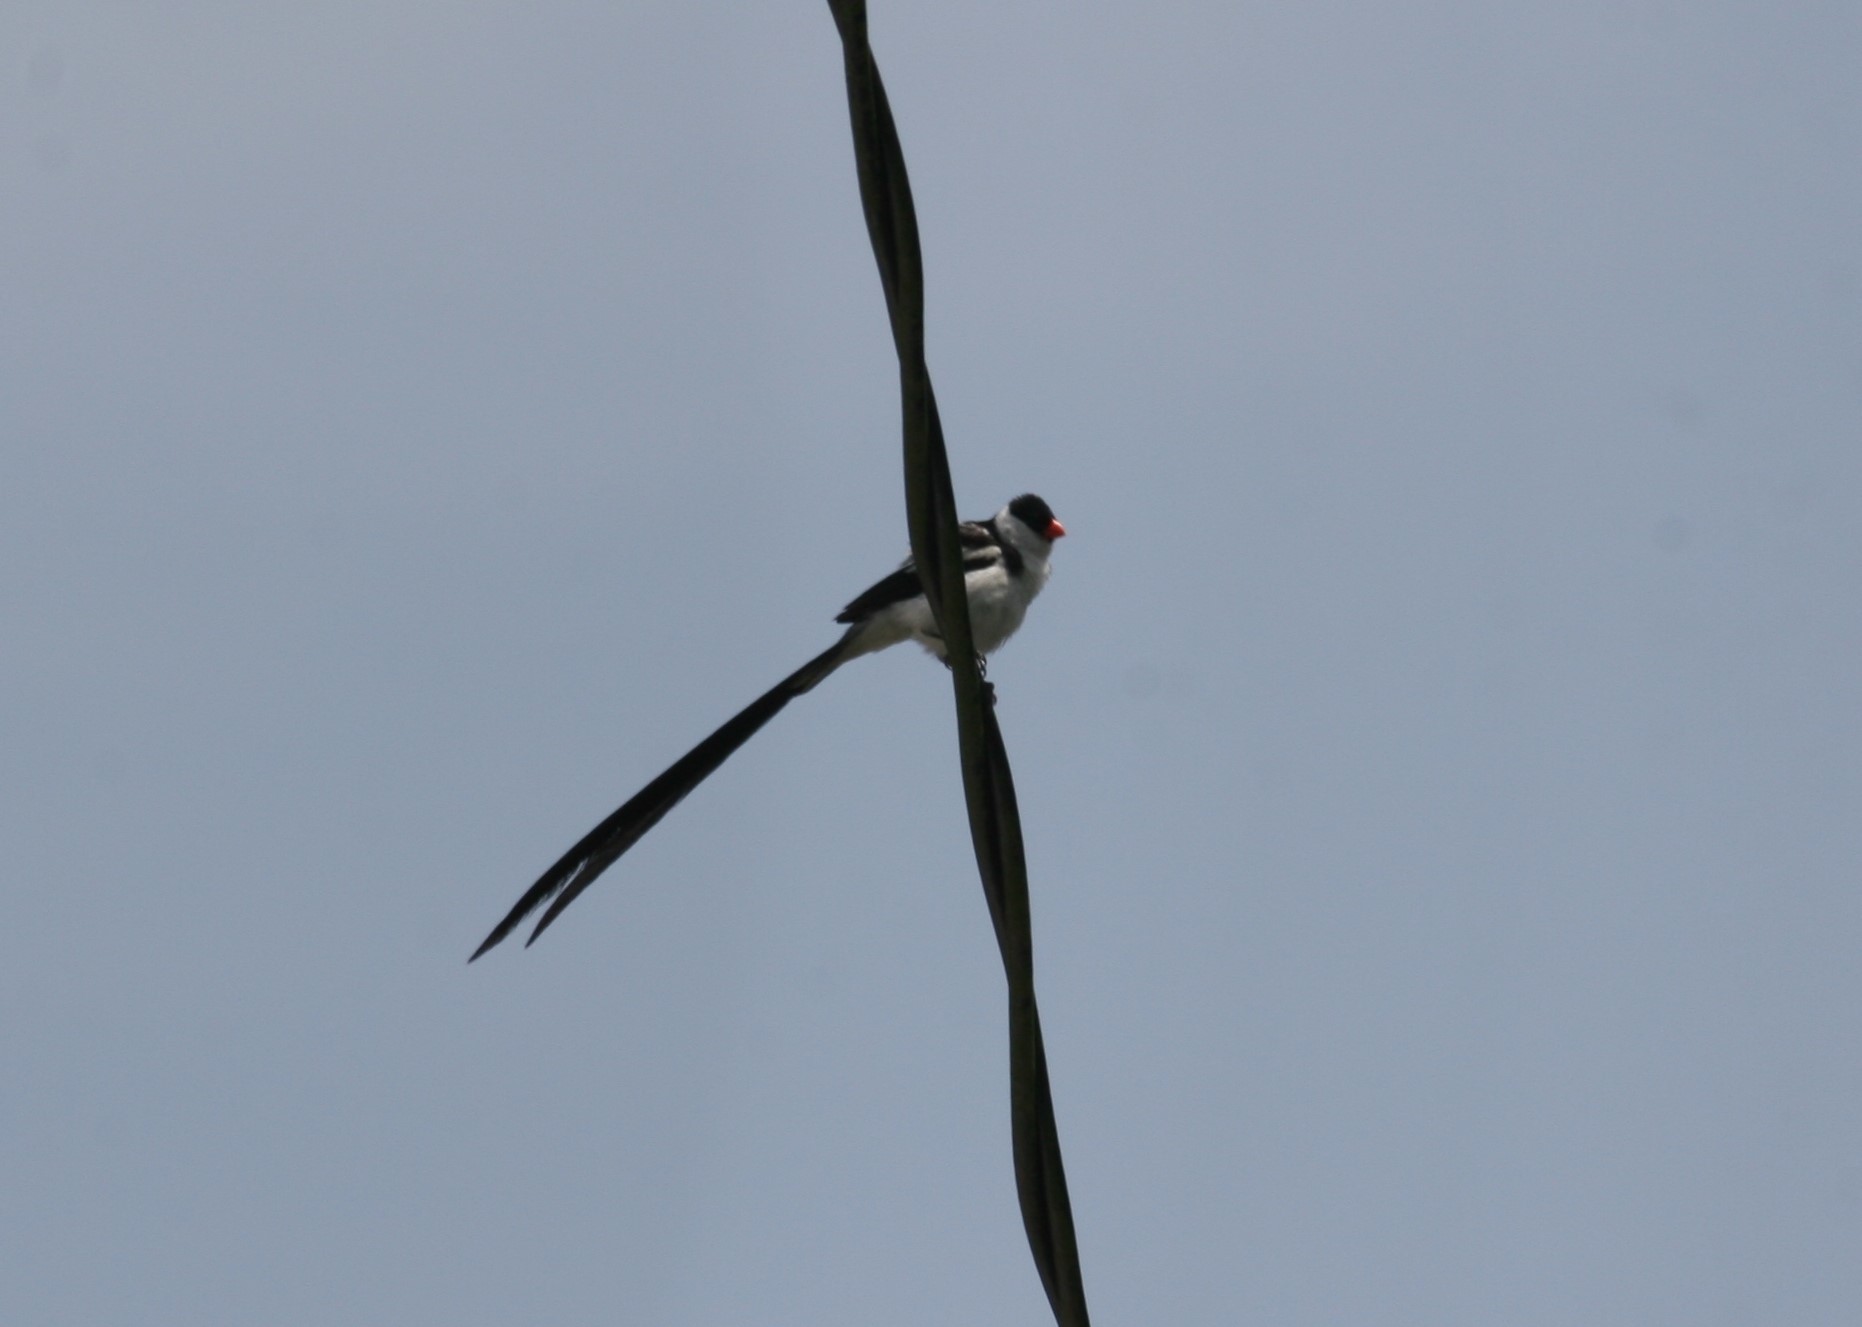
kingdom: Animalia
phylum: Chordata
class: Aves
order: Passeriformes
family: Viduidae
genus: Vidua
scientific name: Vidua macroura
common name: Pin-tailed whydah
